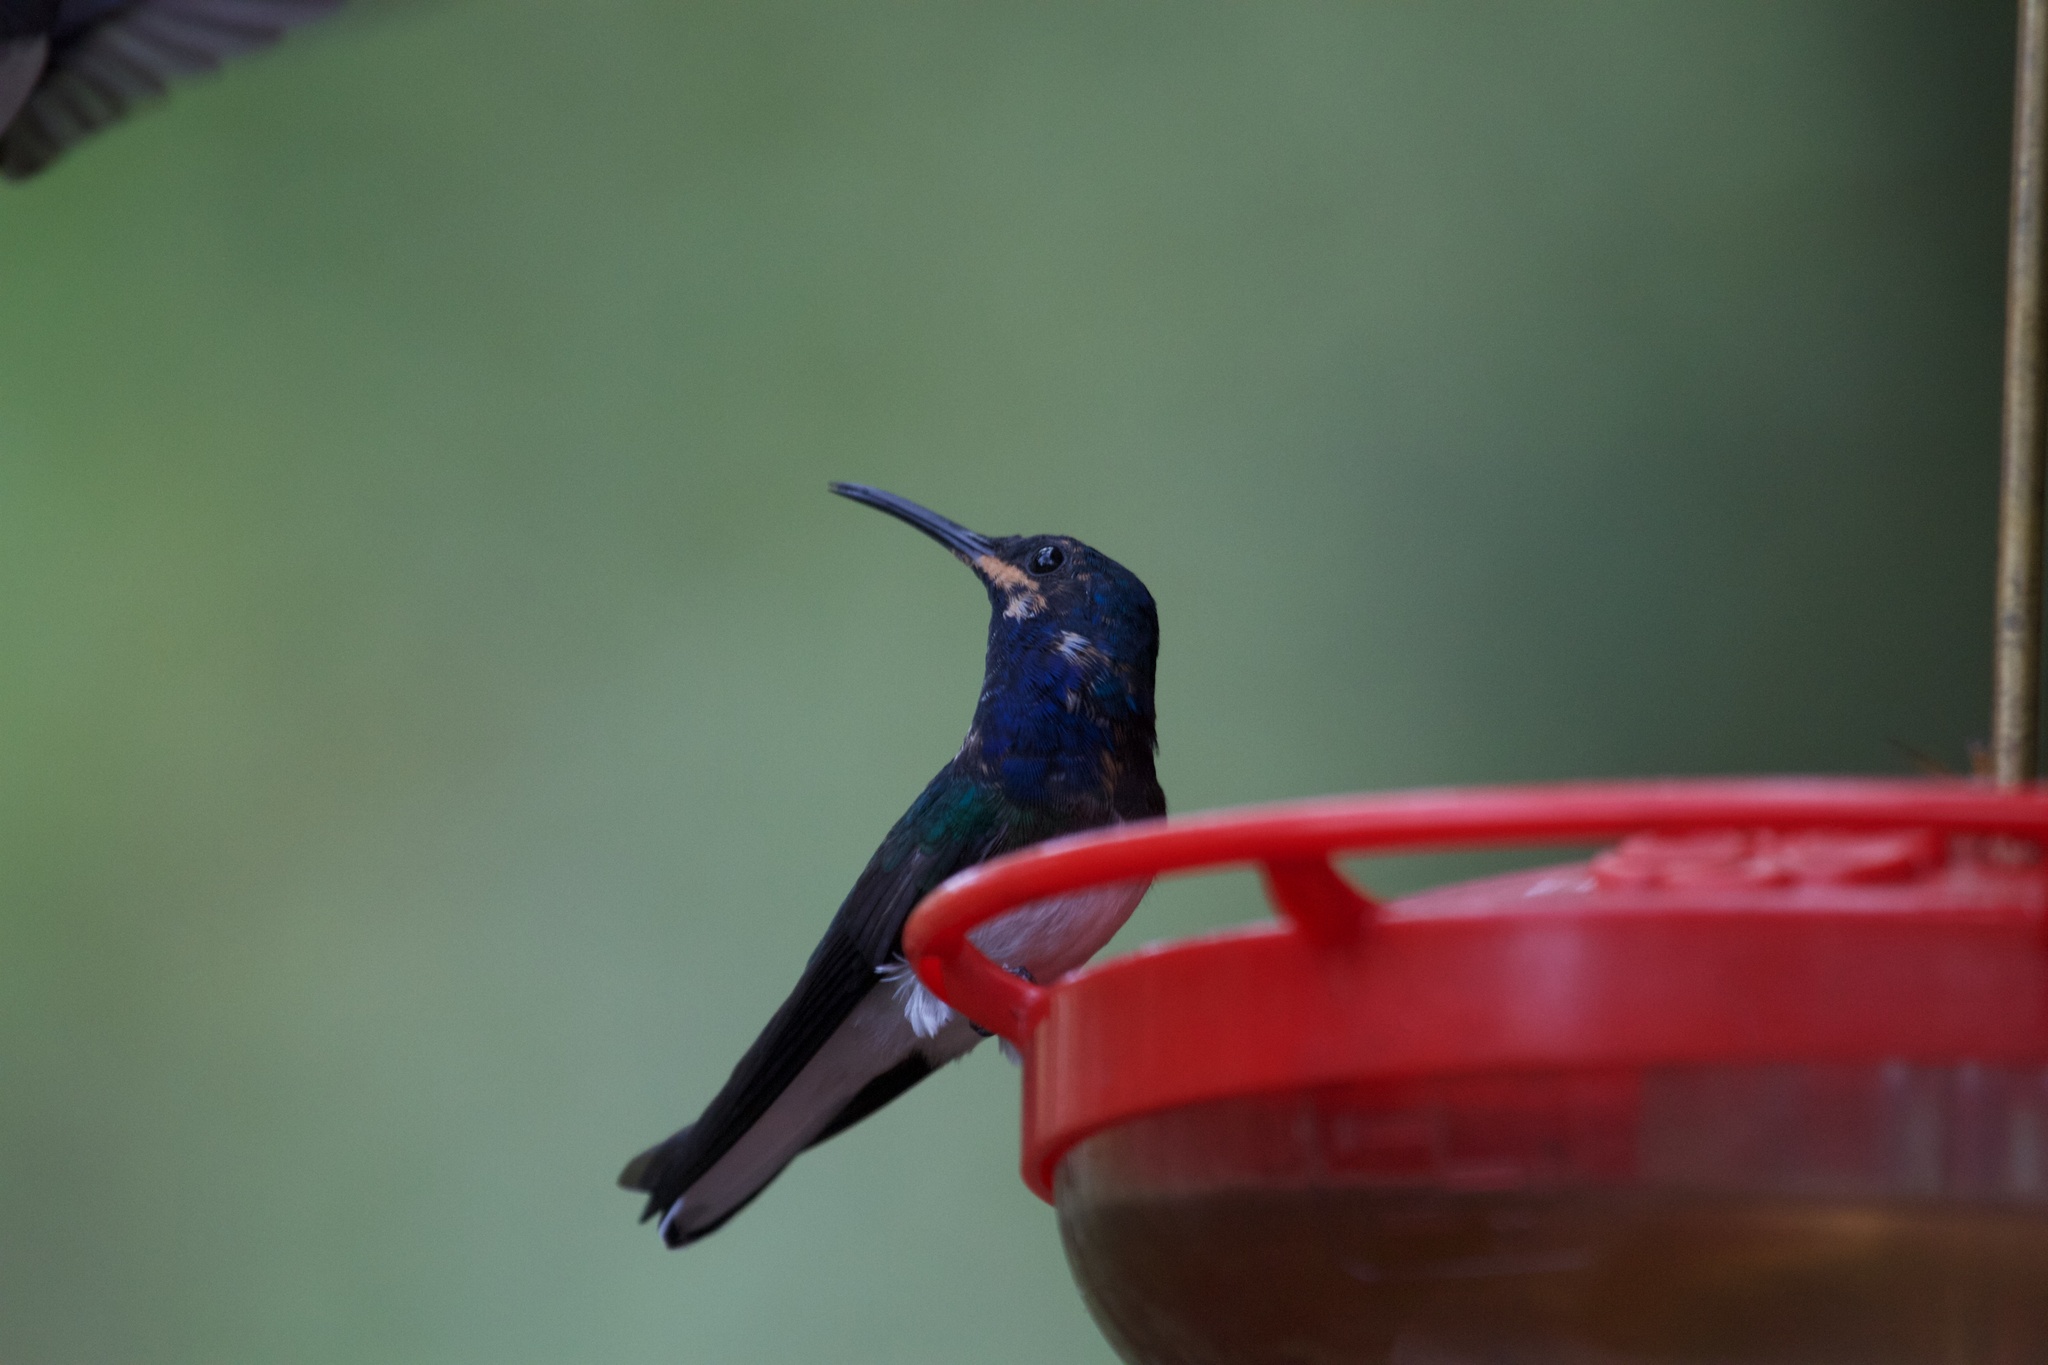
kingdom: Animalia
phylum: Chordata
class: Aves
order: Apodiformes
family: Trochilidae
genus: Florisuga
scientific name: Florisuga mellivora
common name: White-necked jacobin
